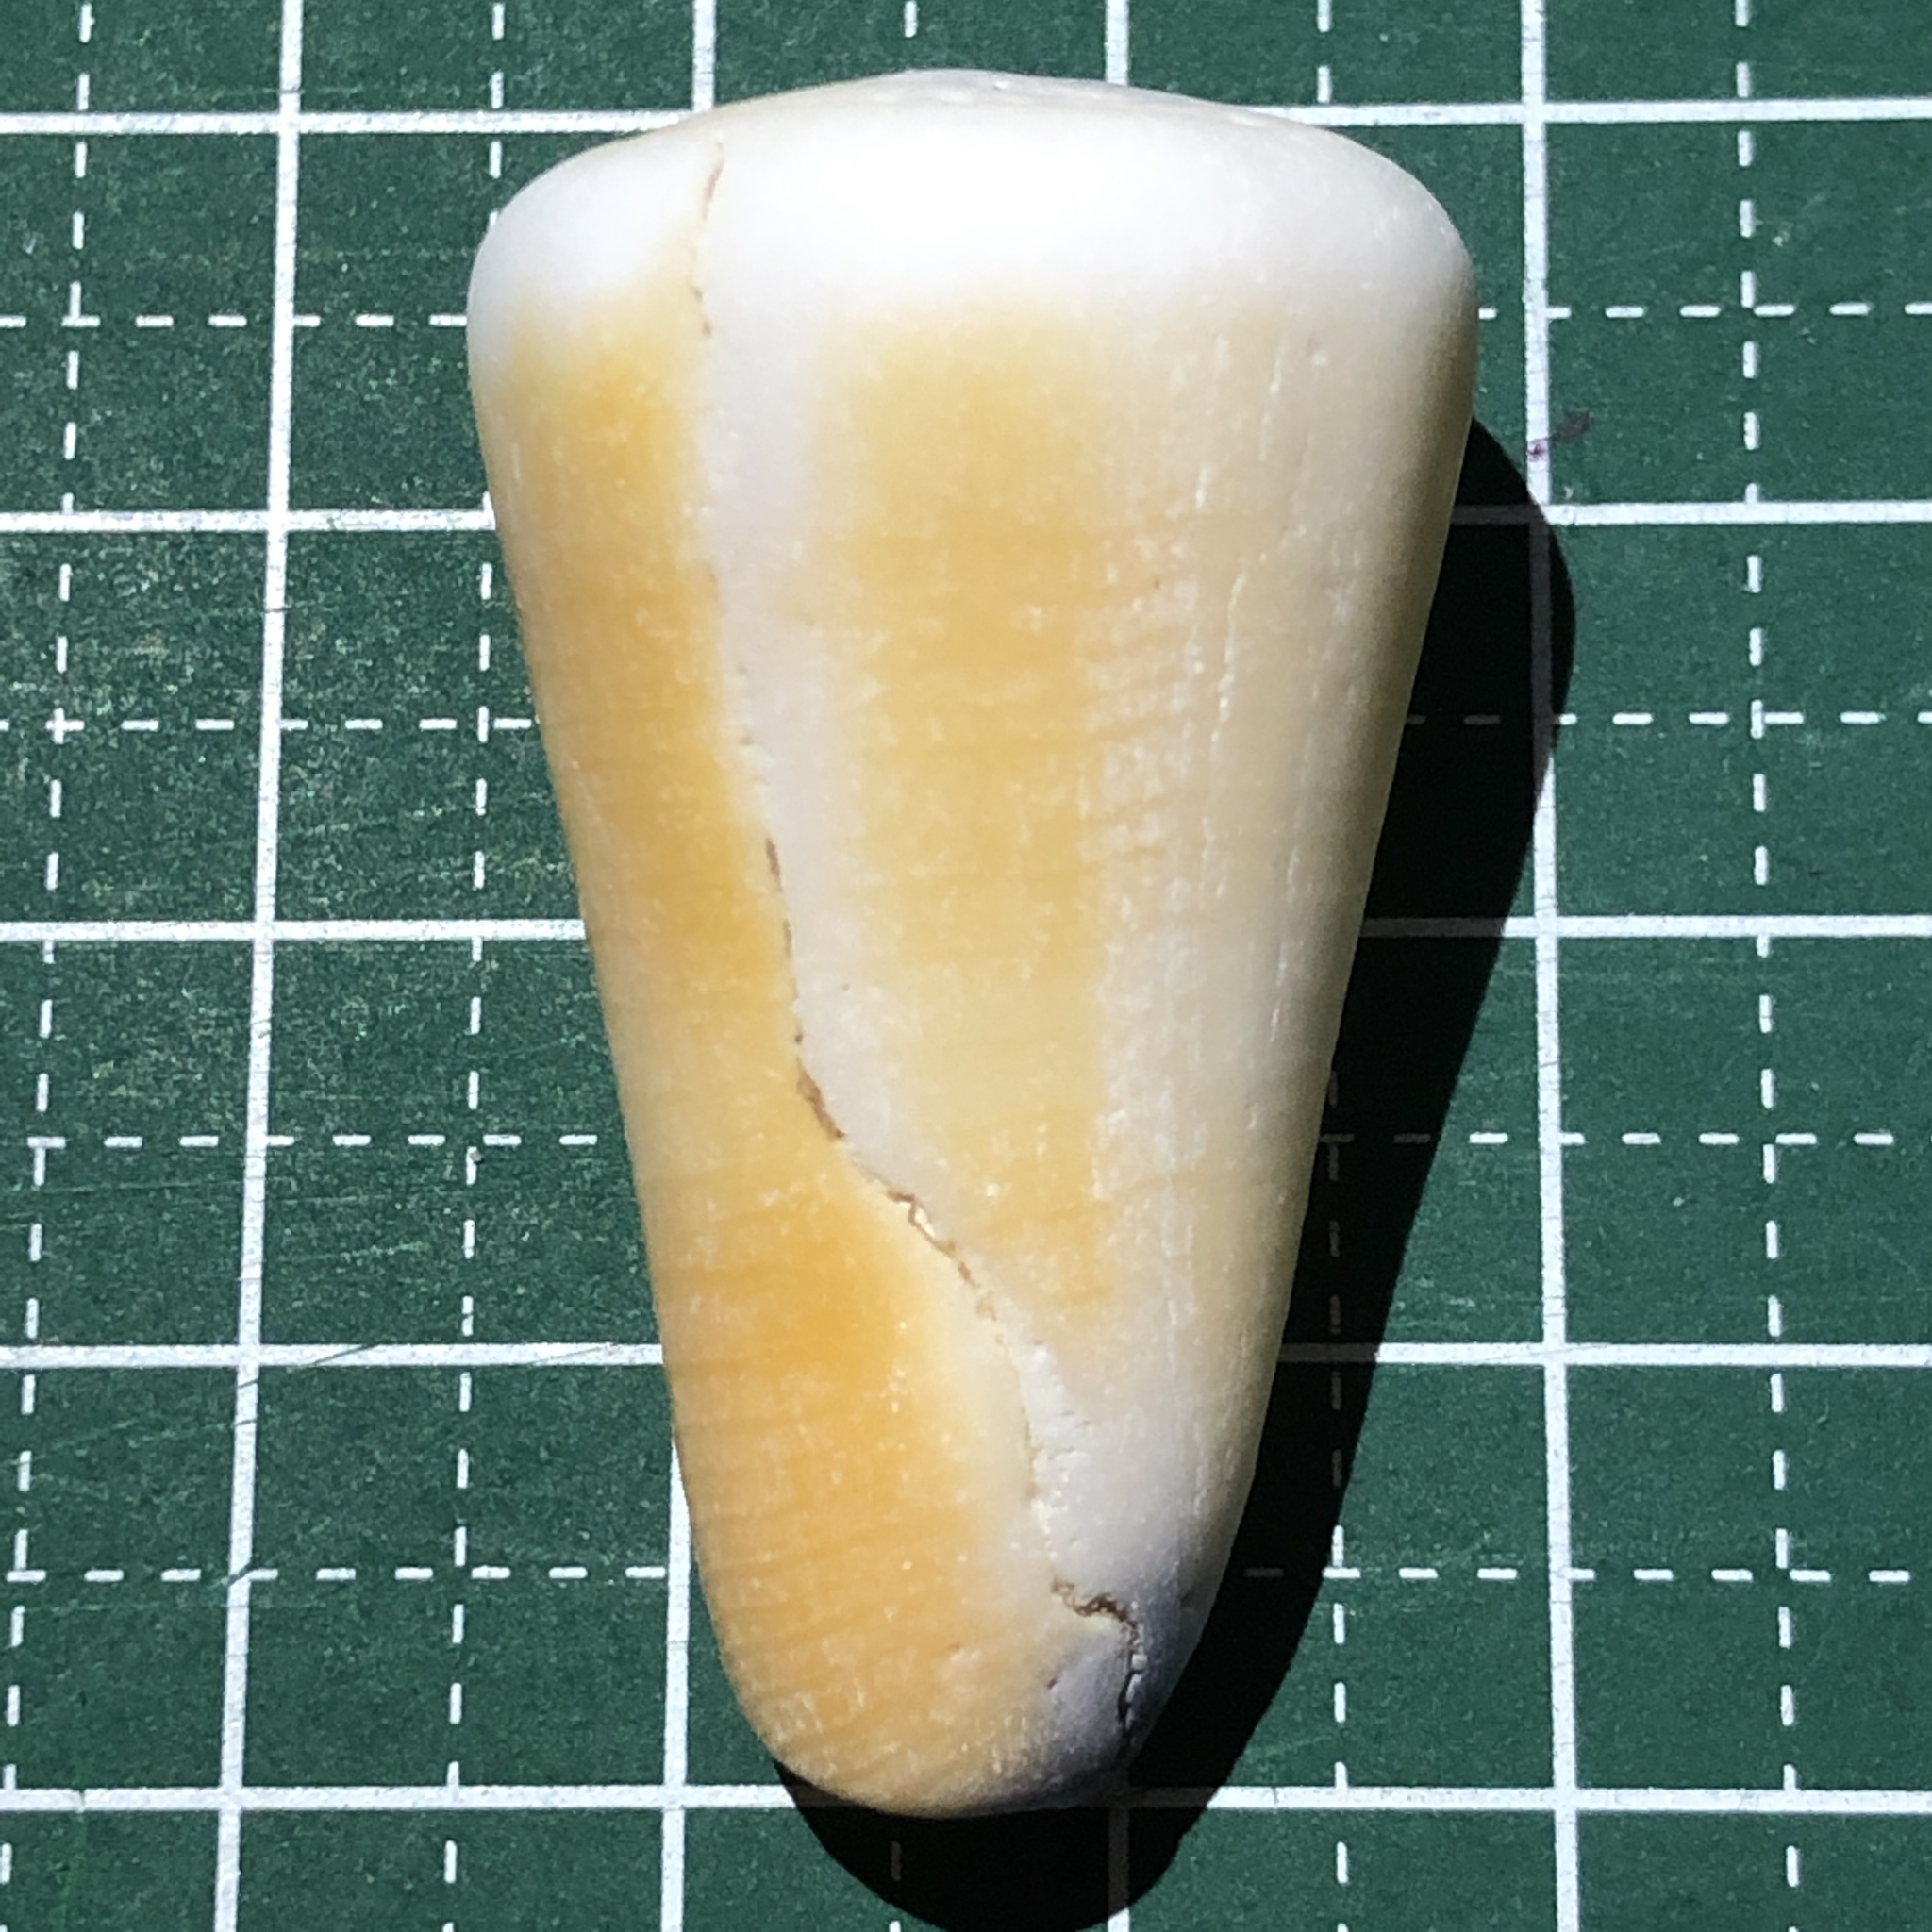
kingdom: Animalia
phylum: Mollusca
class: Gastropoda
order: Neogastropoda
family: Conidae
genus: Conus
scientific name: Conus emaciatus
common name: False virgin cone
